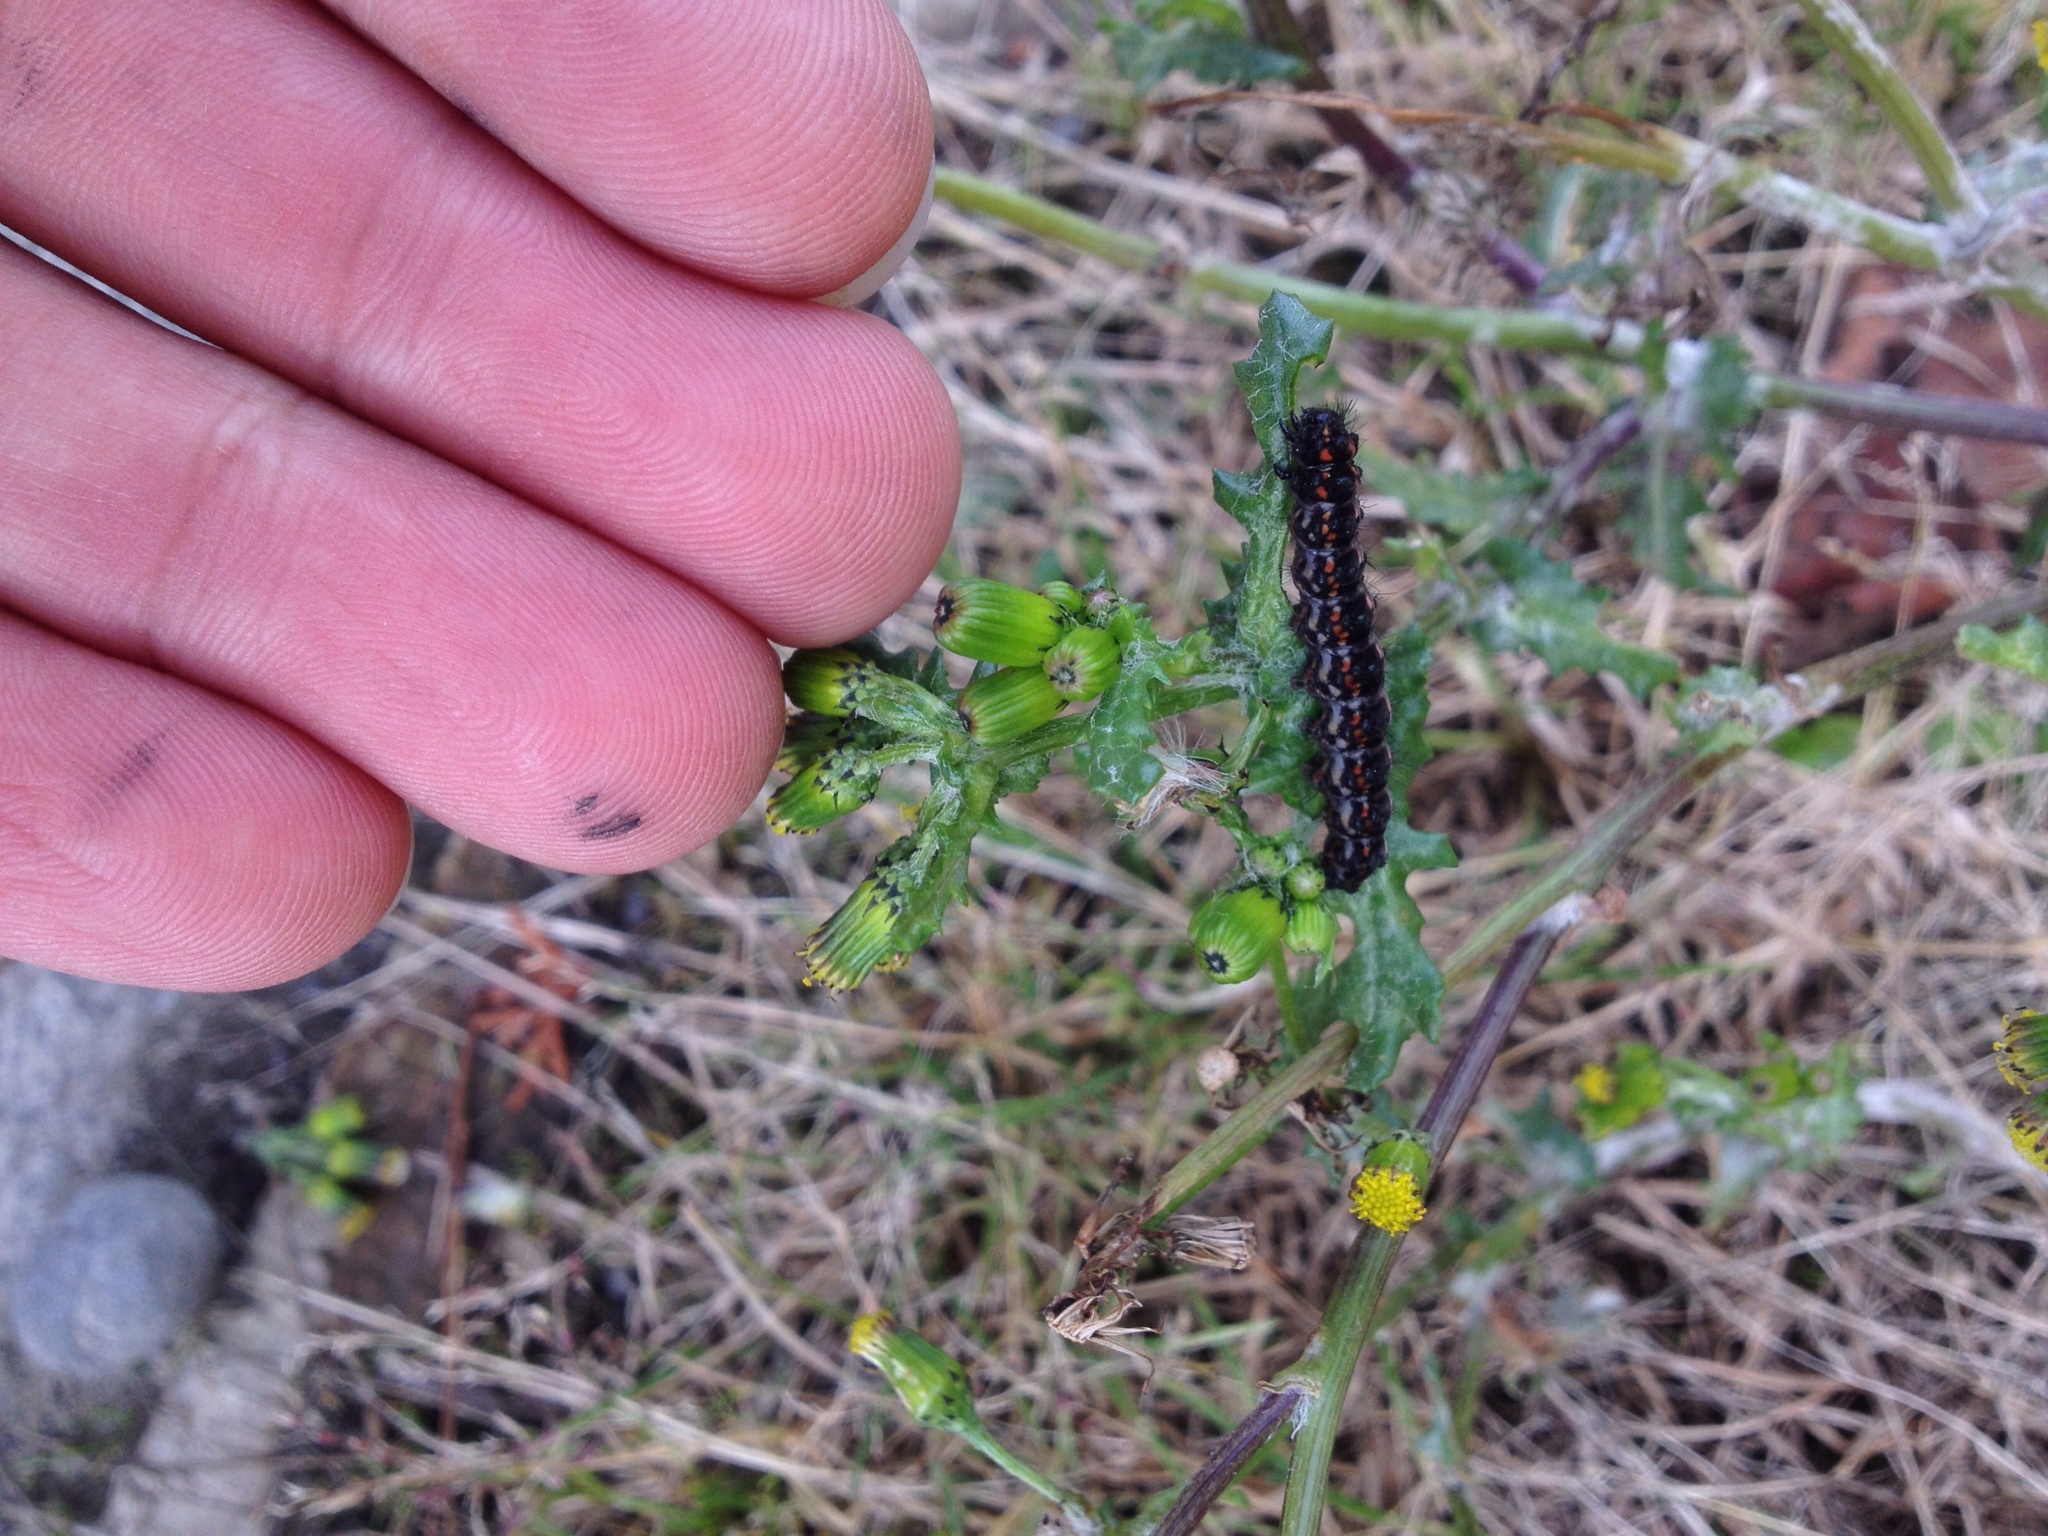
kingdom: Animalia
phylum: Arthropoda
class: Insecta
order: Lepidoptera
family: Erebidae
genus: Nyctemera
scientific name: Nyctemera annulatum
